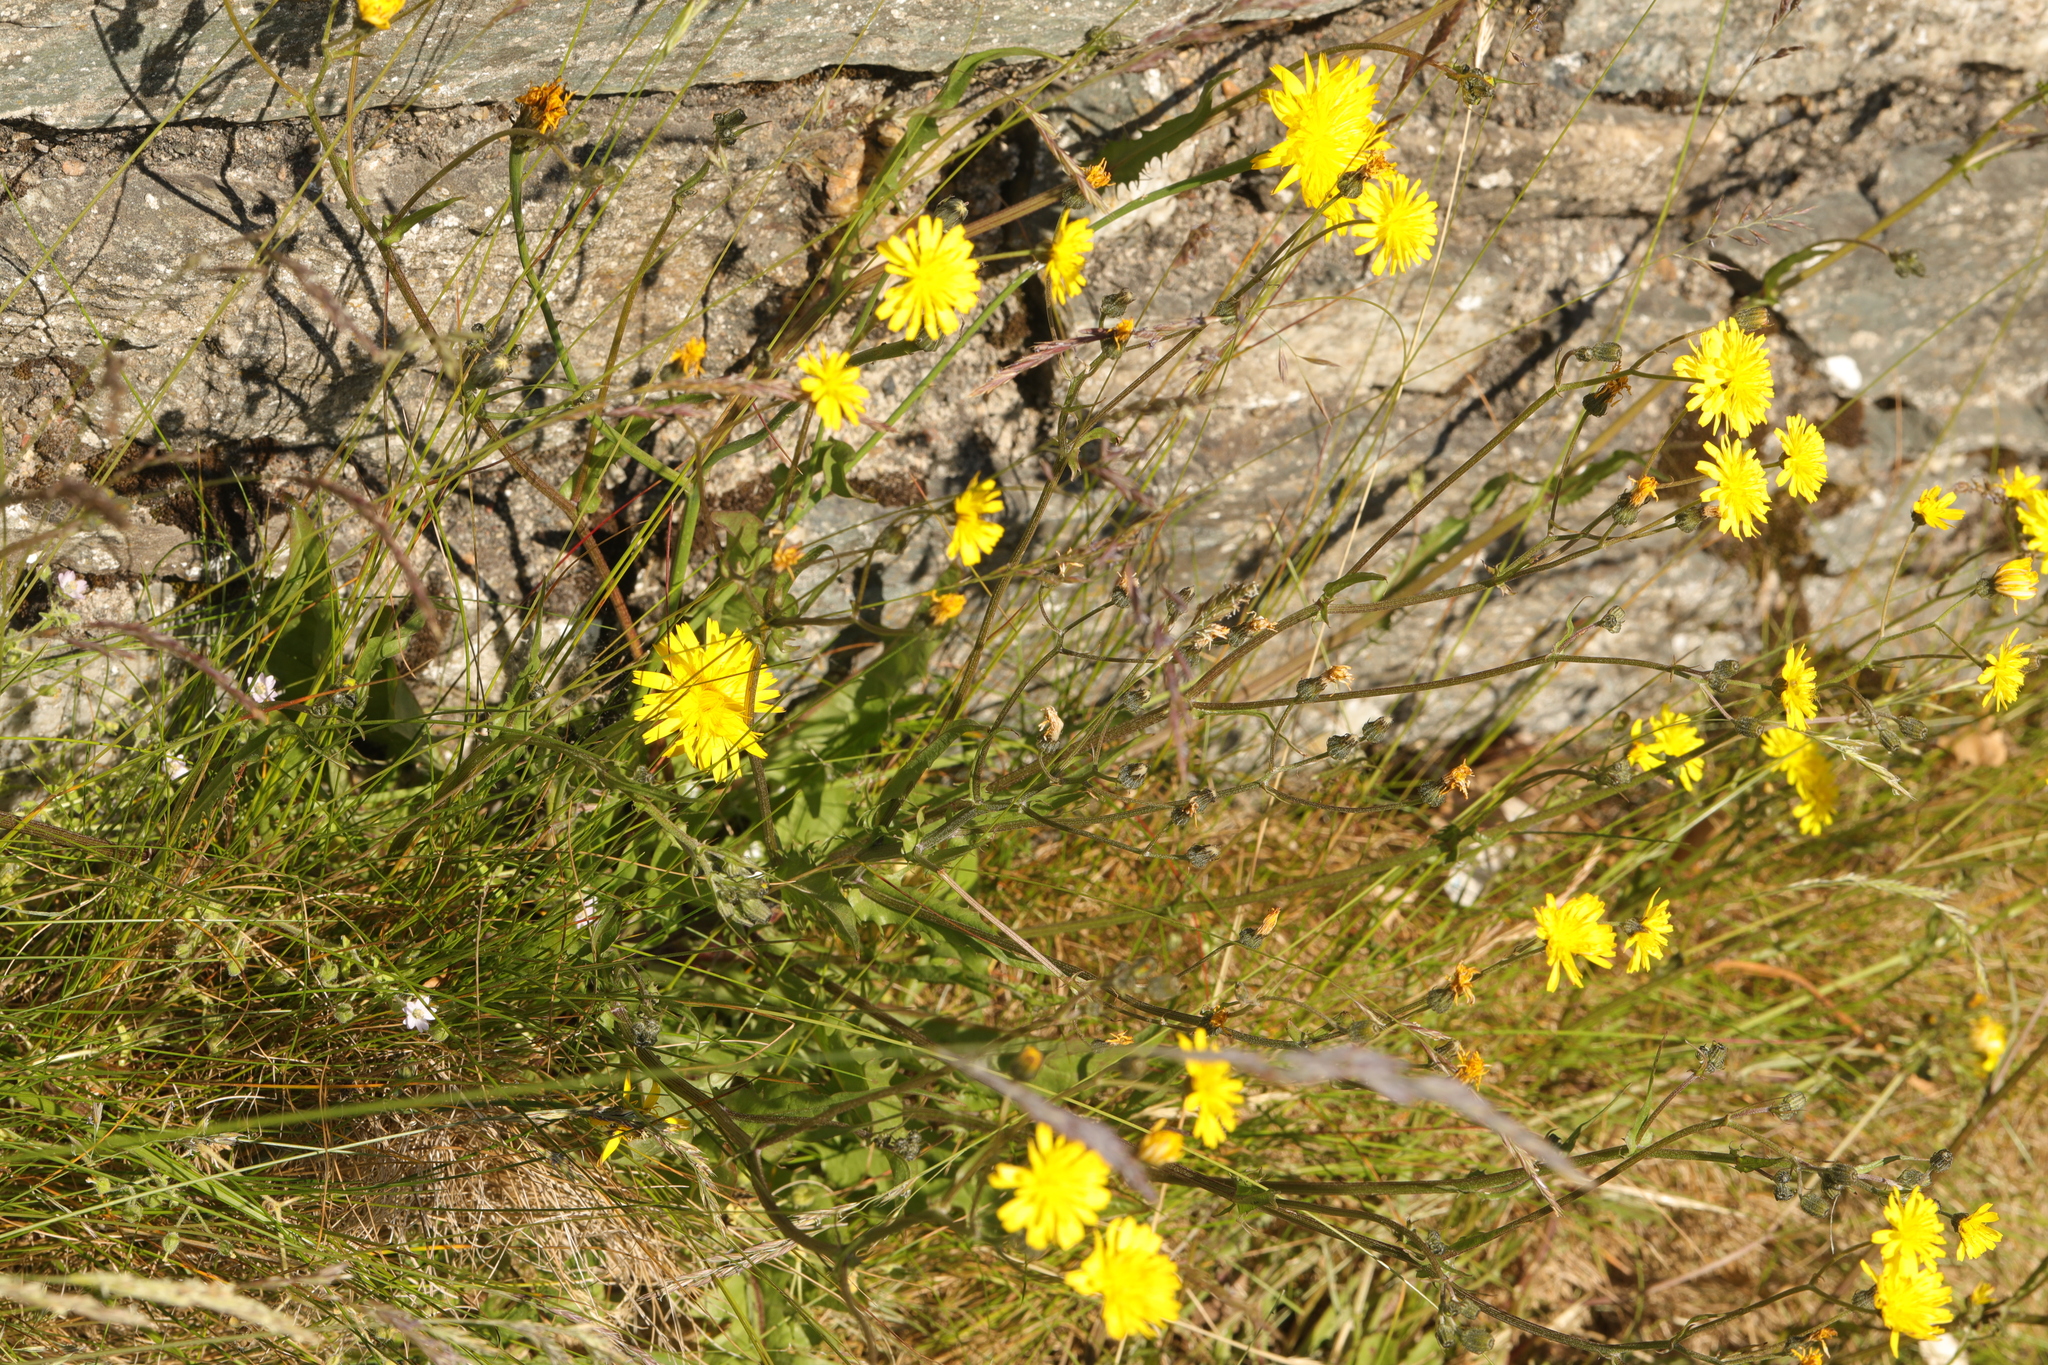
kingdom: Plantae
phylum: Tracheophyta
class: Magnoliopsida
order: Asterales
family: Asteraceae
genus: Crepis
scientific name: Crepis capillaris
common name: Smooth hawksbeard
